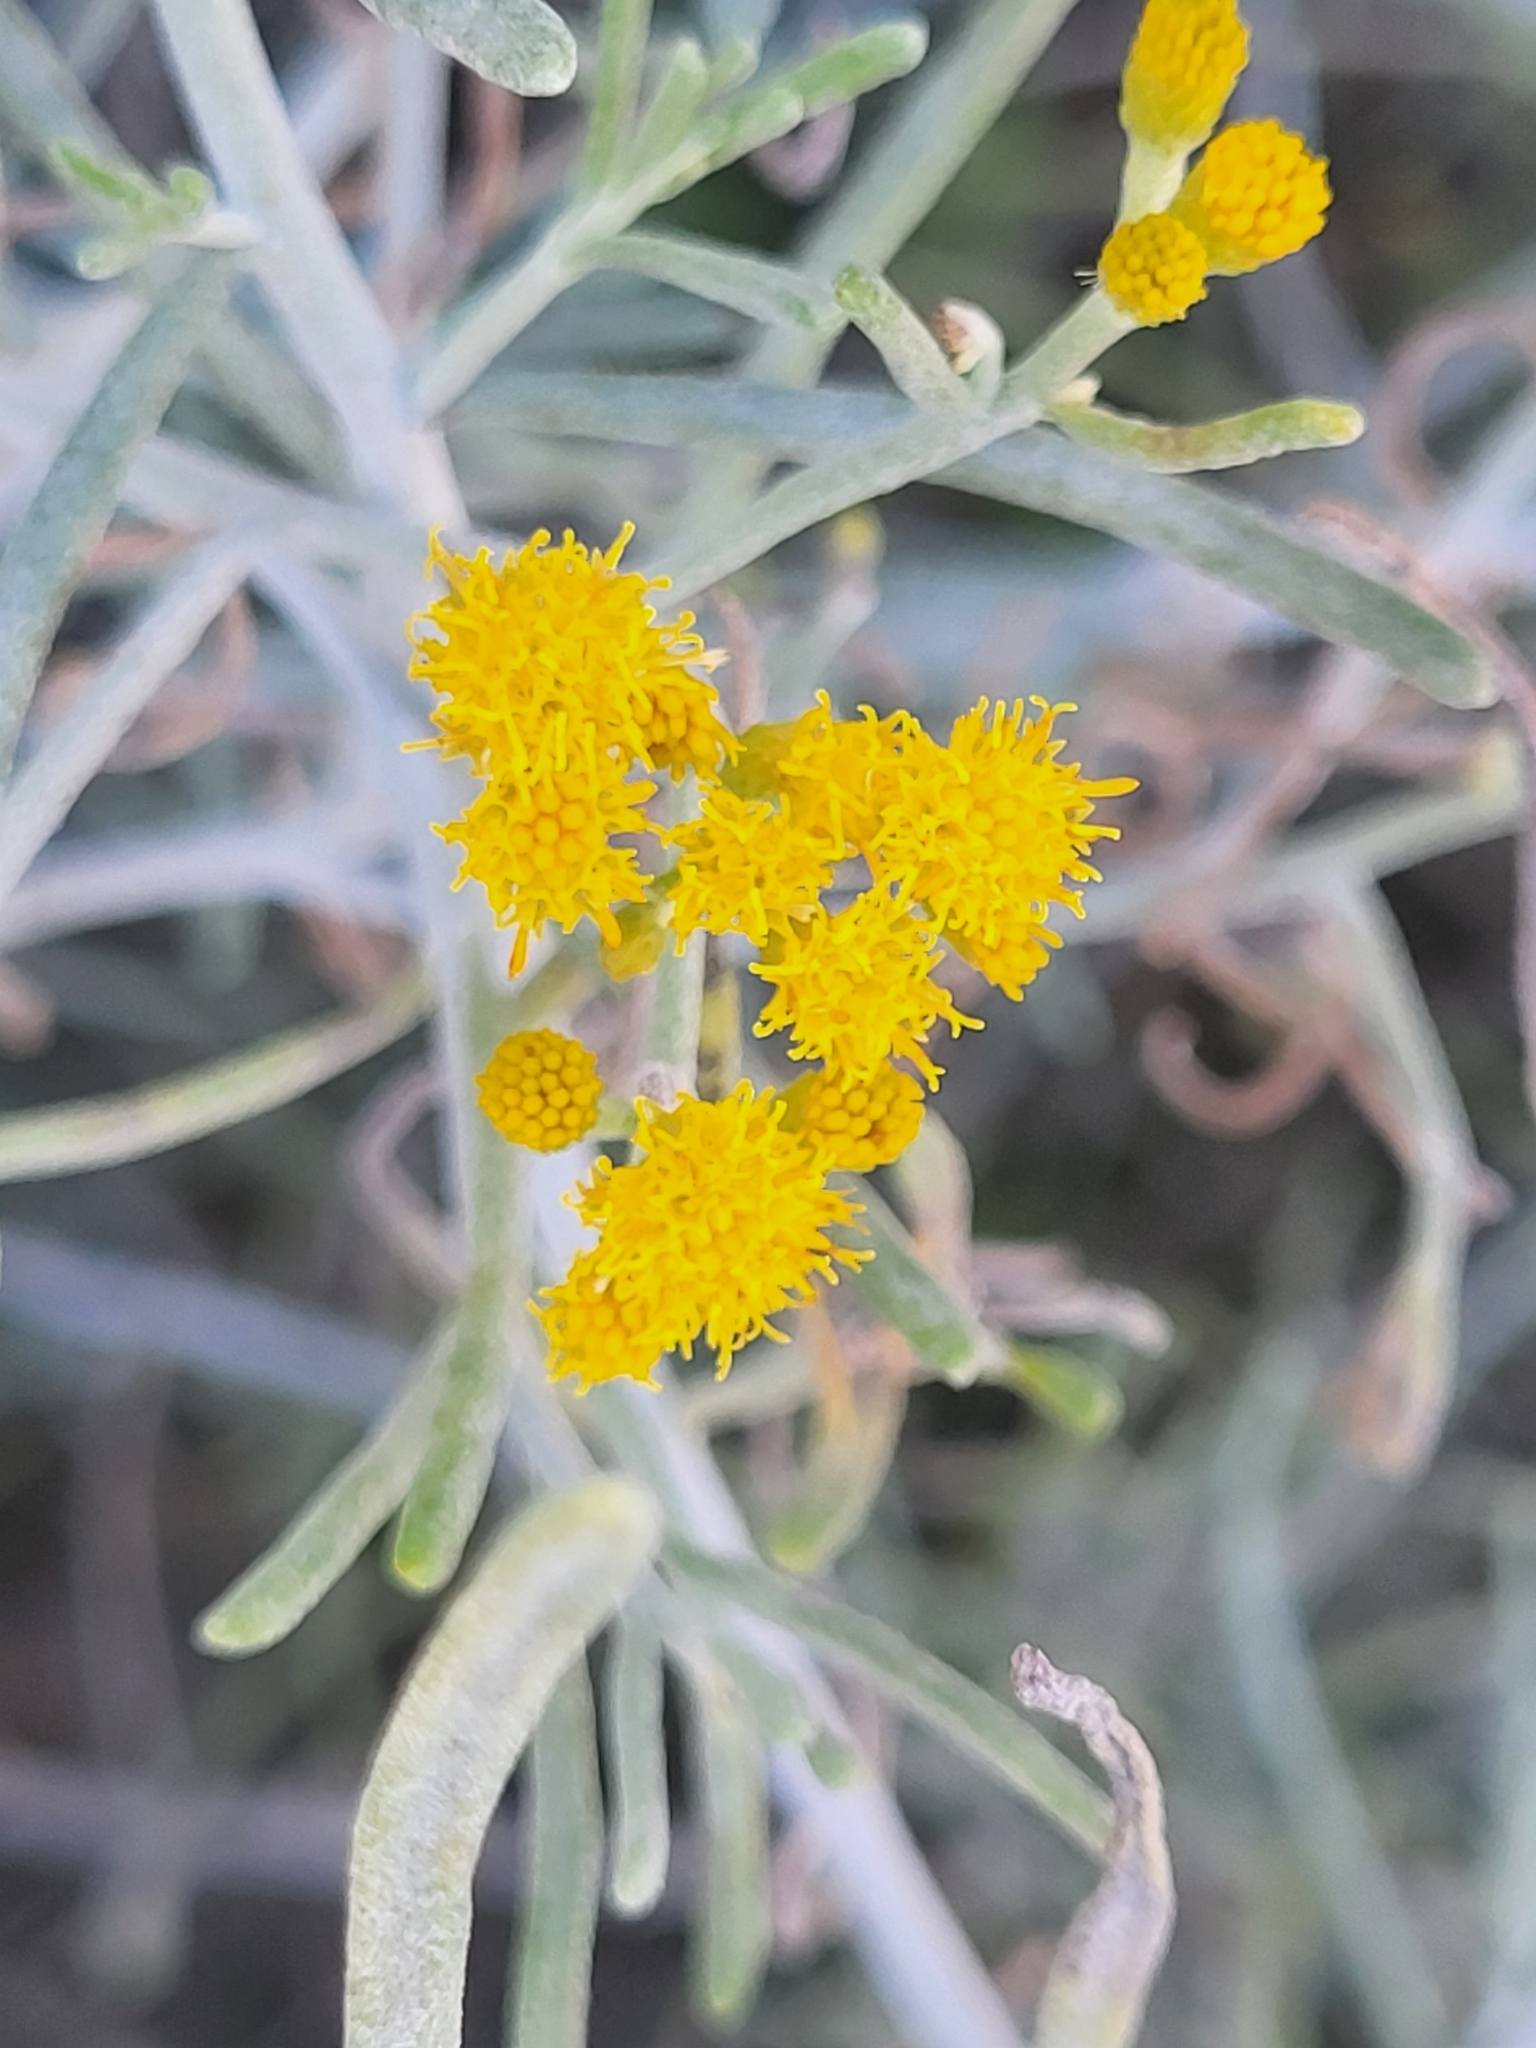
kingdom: Plantae
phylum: Tracheophyta
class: Magnoliopsida
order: Asterales
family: Asteraceae
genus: Schizogyne
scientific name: Schizogyne sericea
